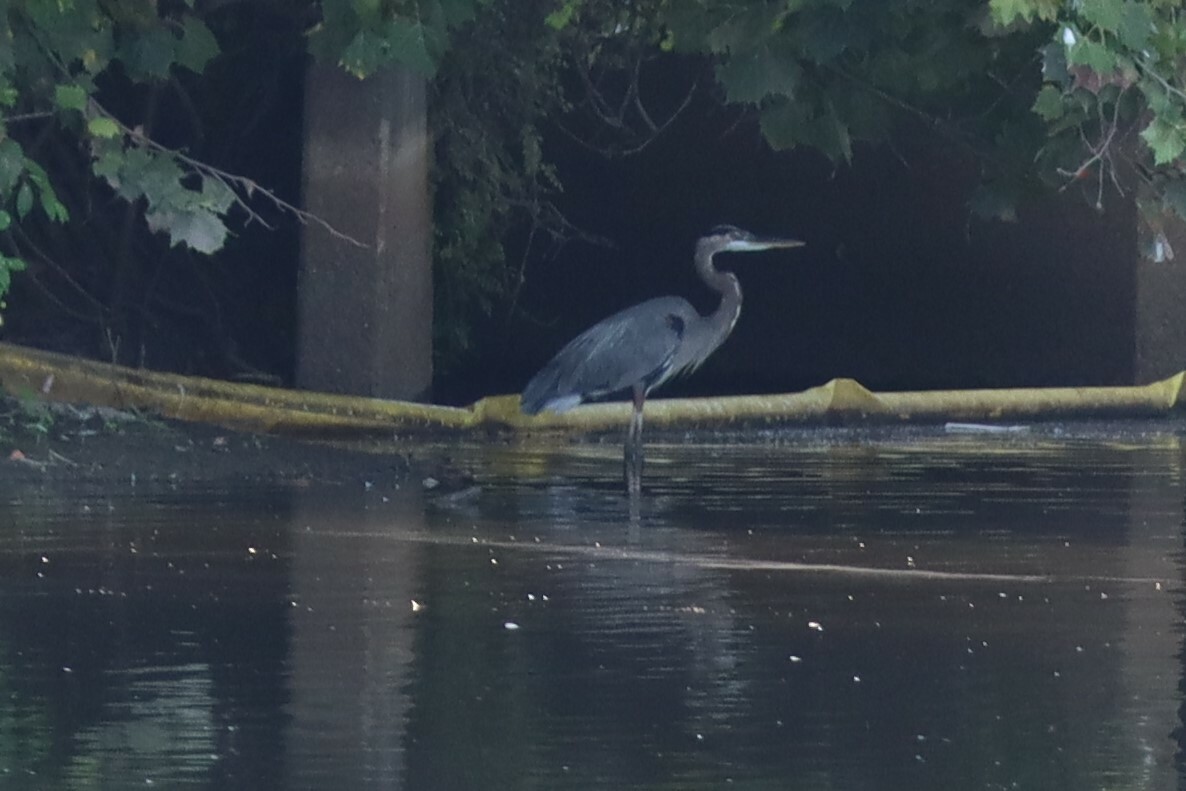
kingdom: Animalia
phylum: Chordata
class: Aves
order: Pelecaniformes
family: Ardeidae
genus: Ardea
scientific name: Ardea herodias
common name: Great blue heron
